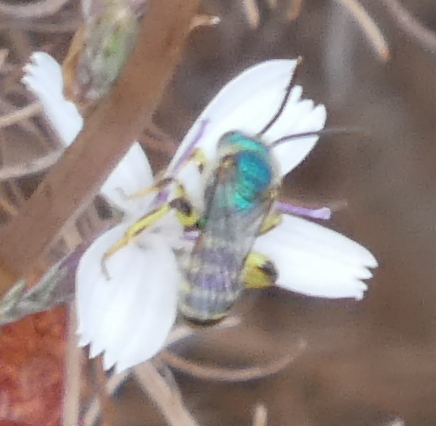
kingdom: Animalia
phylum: Arthropoda
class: Insecta
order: Hymenoptera
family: Halictidae
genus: Agapostemon
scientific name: Agapostemon texanus
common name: Texas striped sweat bee
